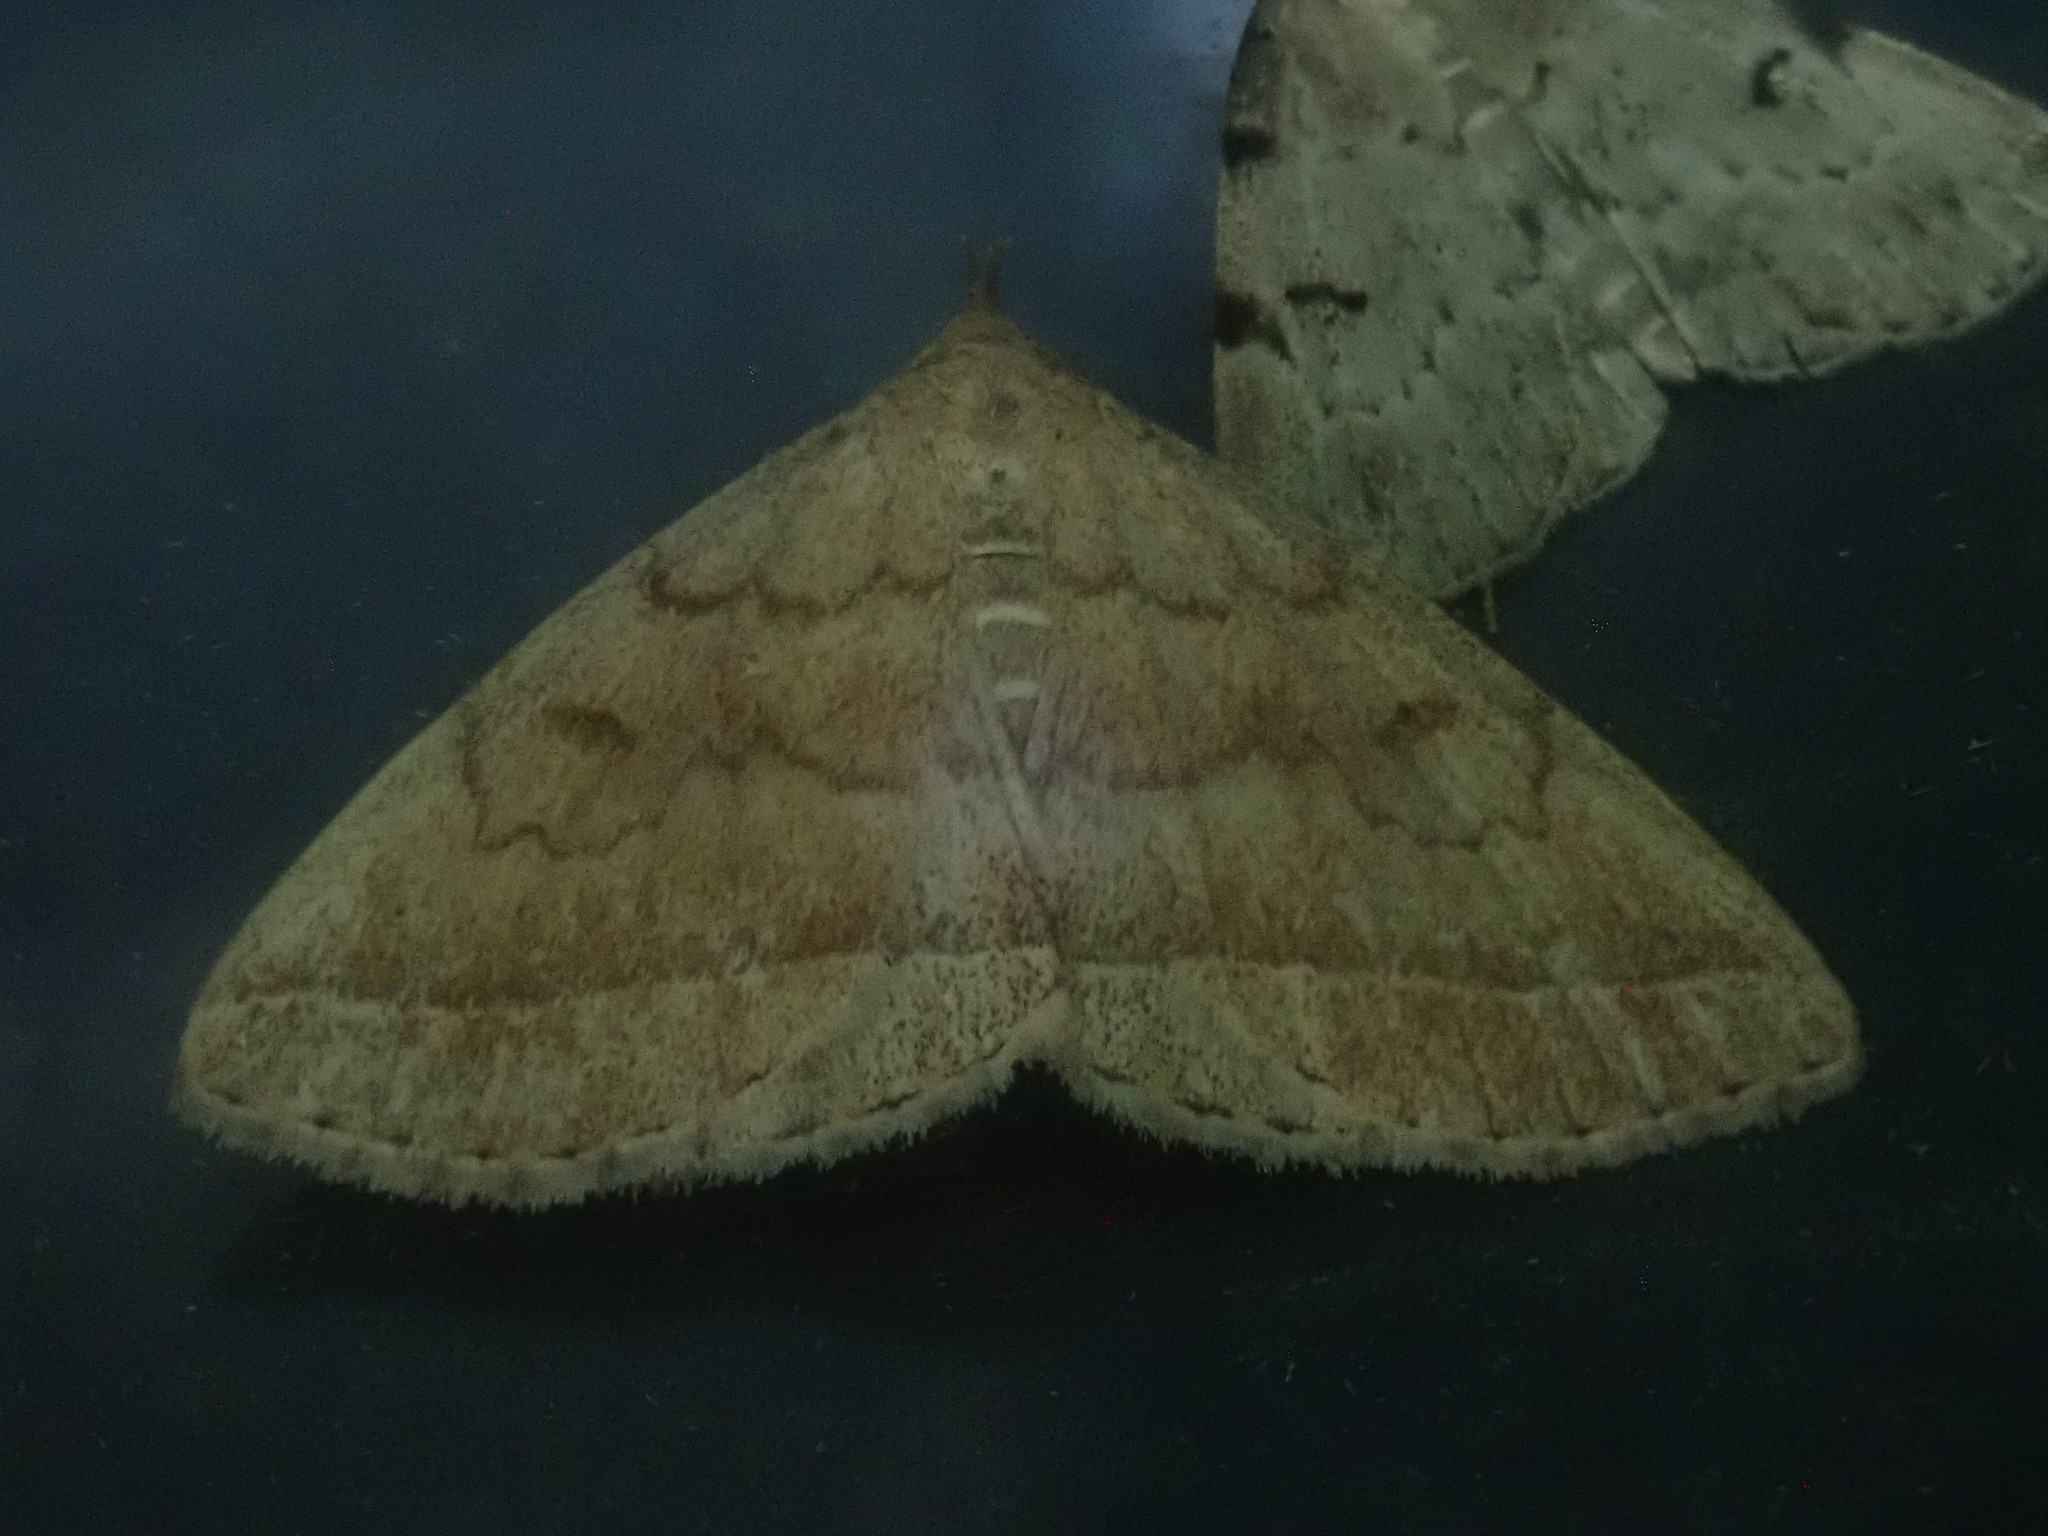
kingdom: Animalia
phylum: Arthropoda
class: Insecta
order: Lepidoptera
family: Erebidae
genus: Zanclognatha
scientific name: Zanclognatha jacchusalis
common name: Yellowish zanclognatha
